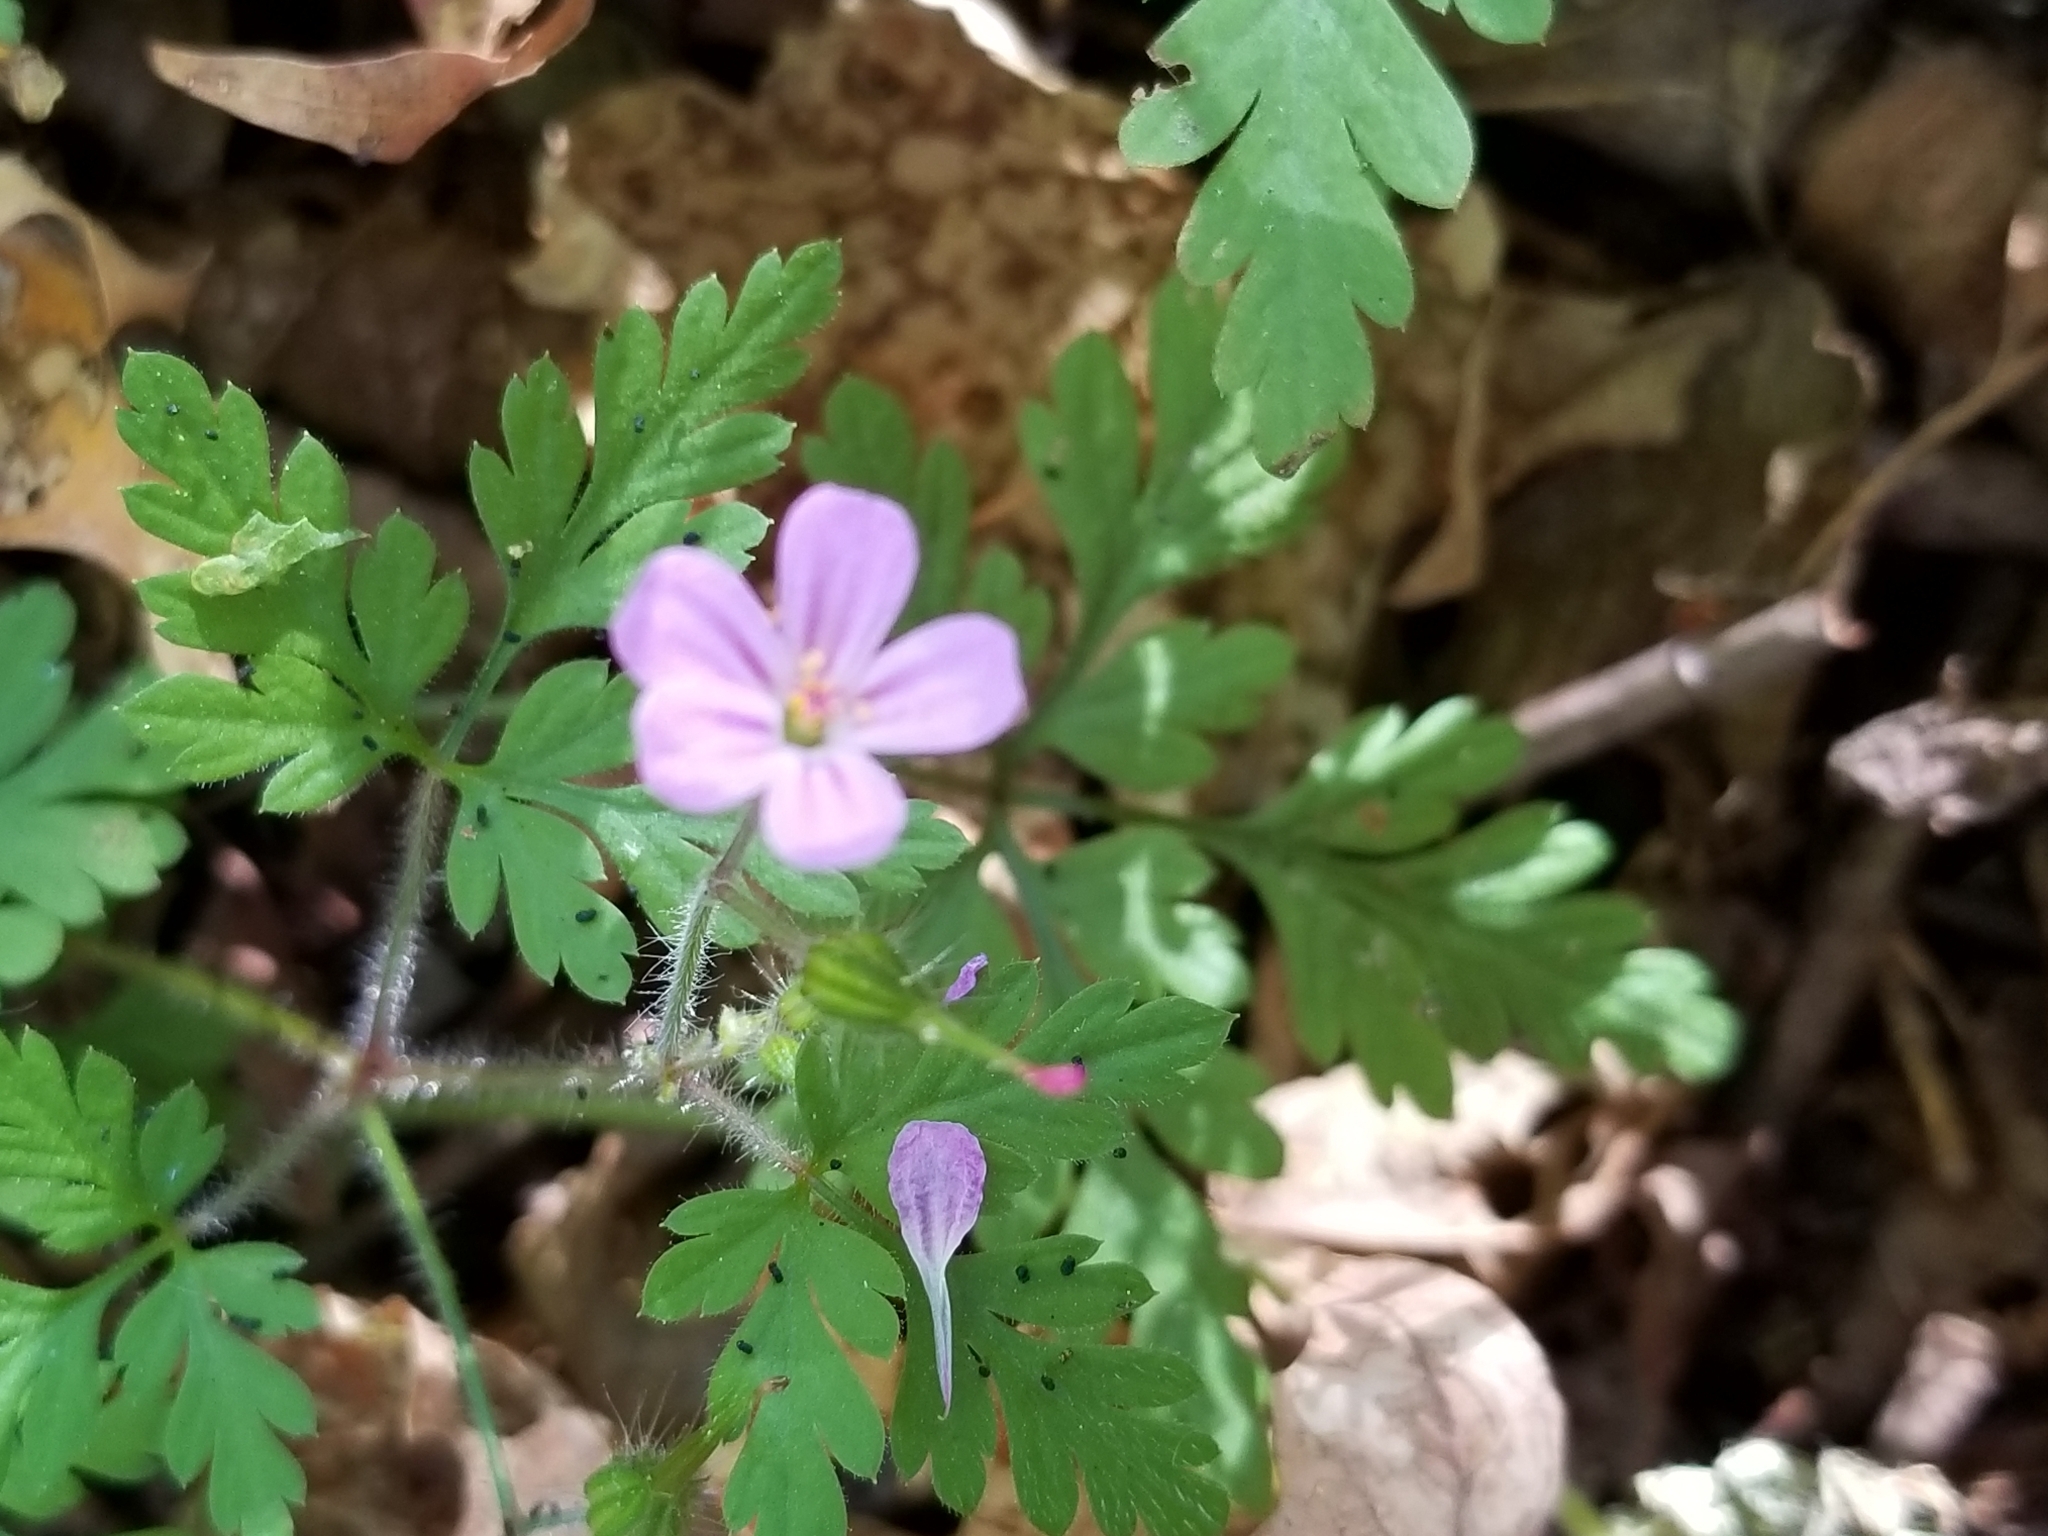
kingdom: Plantae
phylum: Tracheophyta
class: Magnoliopsida
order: Geraniales
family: Geraniaceae
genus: Geranium
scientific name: Geranium robertianum
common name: Herb-robert
